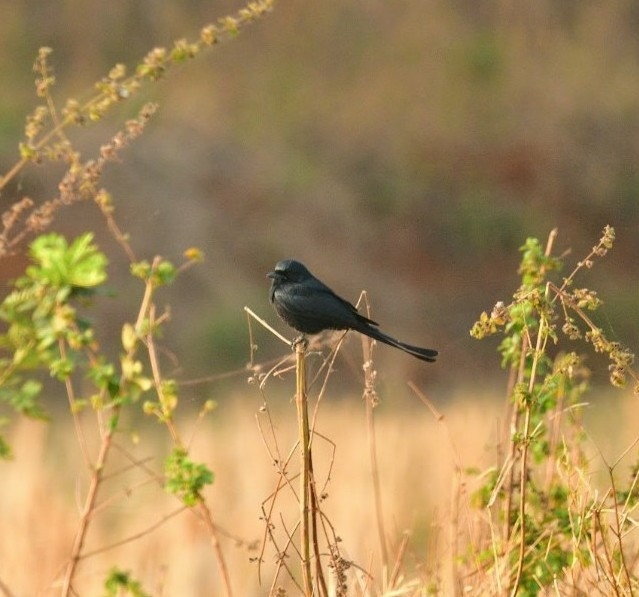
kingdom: Animalia
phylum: Chordata
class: Aves
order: Passeriformes
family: Dicruridae
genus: Dicrurus
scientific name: Dicrurus macrocercus
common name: Black drongo
